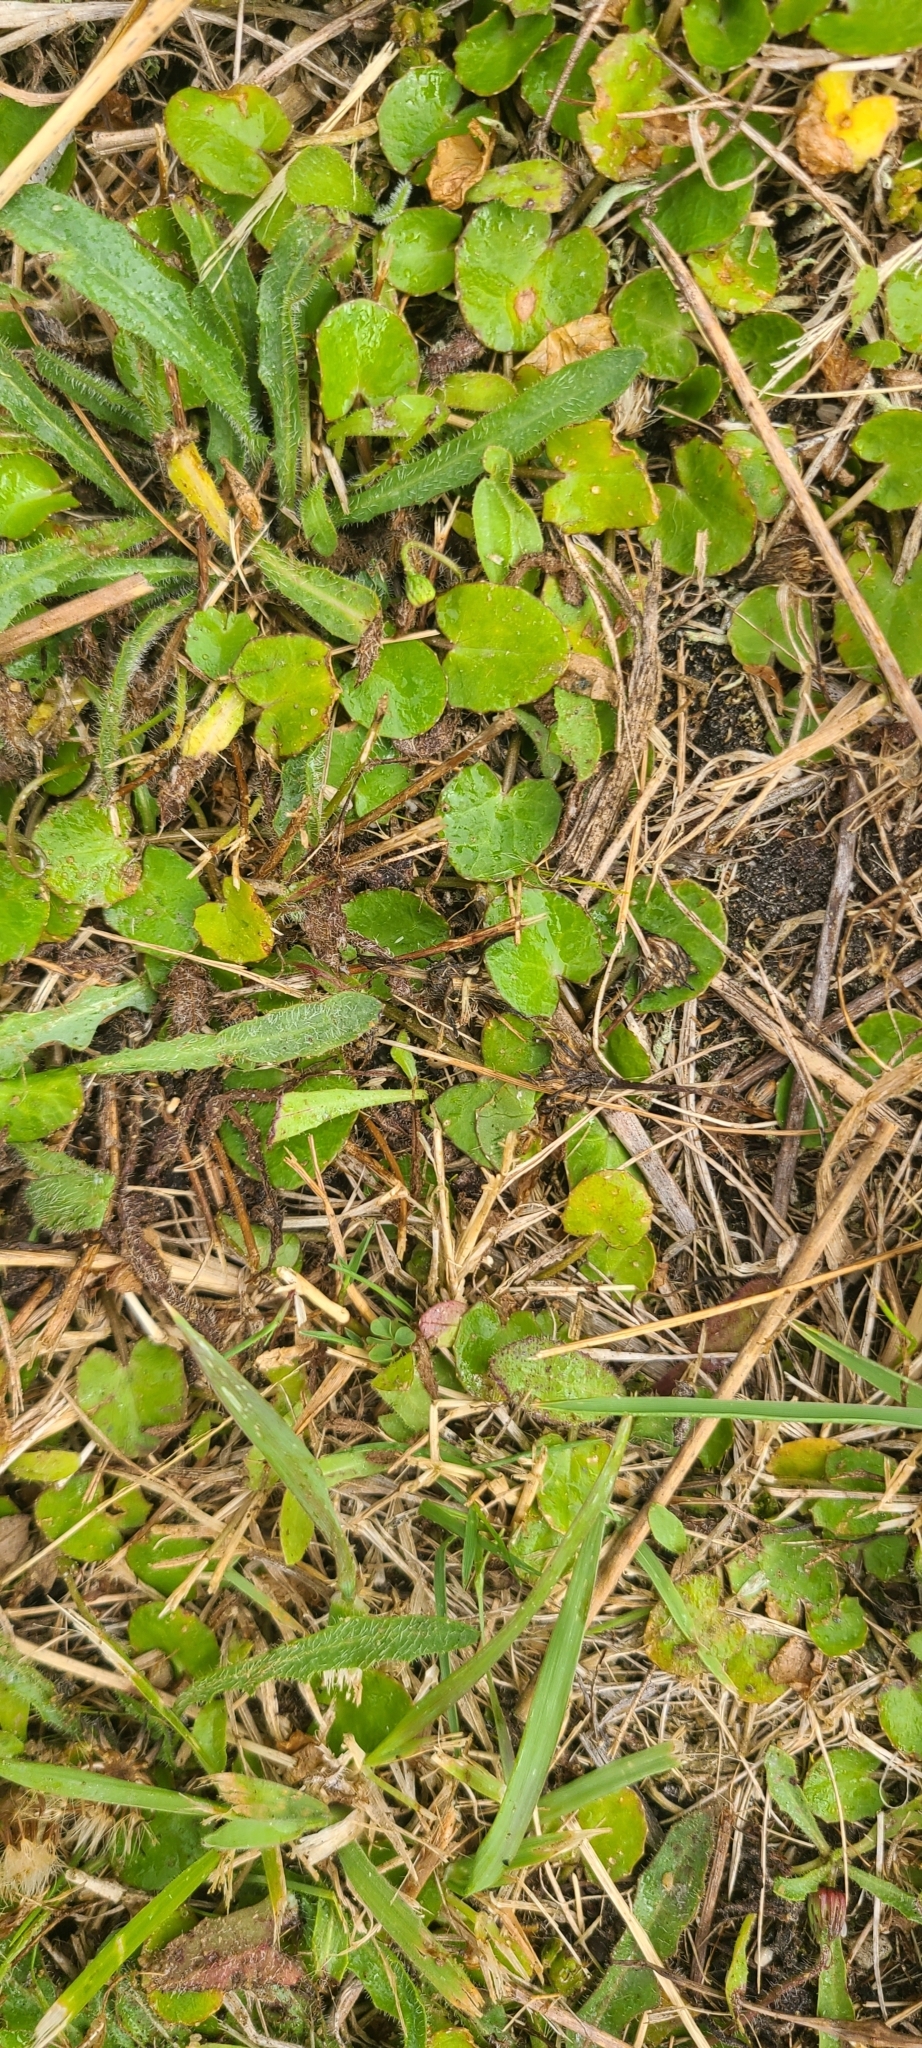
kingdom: Plantae
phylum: Tracheophyta
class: Magnoliopsida
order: Apiales
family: Apiaceae
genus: Centella
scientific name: Centella uniflora
